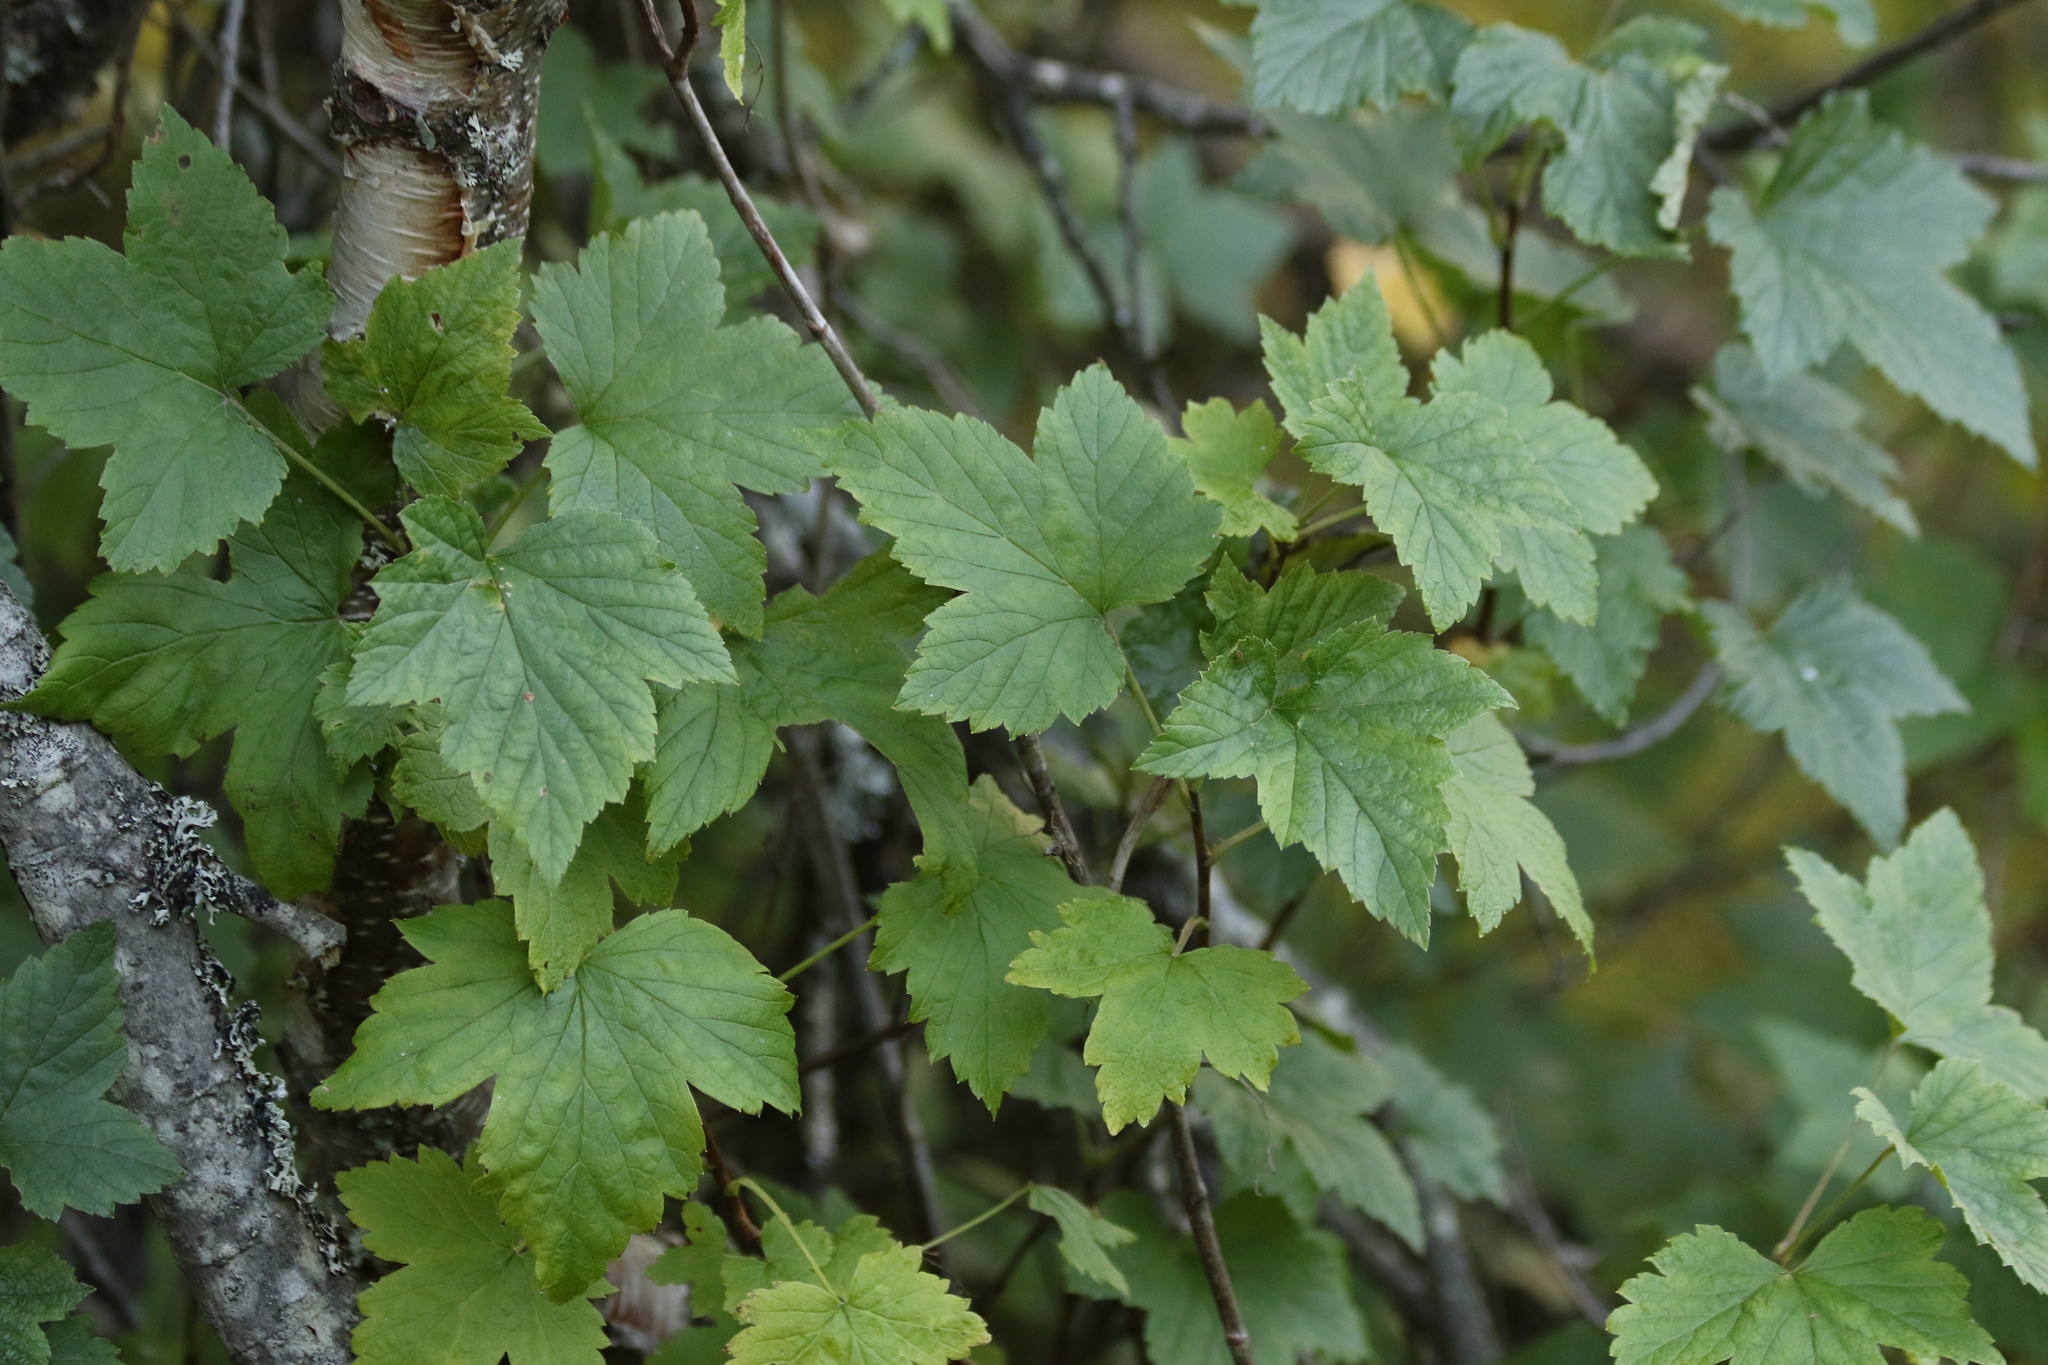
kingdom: Plantae
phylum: Tracheophyta
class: Magnoliopsida
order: Saxifragales
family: Grossulariaceae
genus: Ribes
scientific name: Ribes nigrum
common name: Black currant
